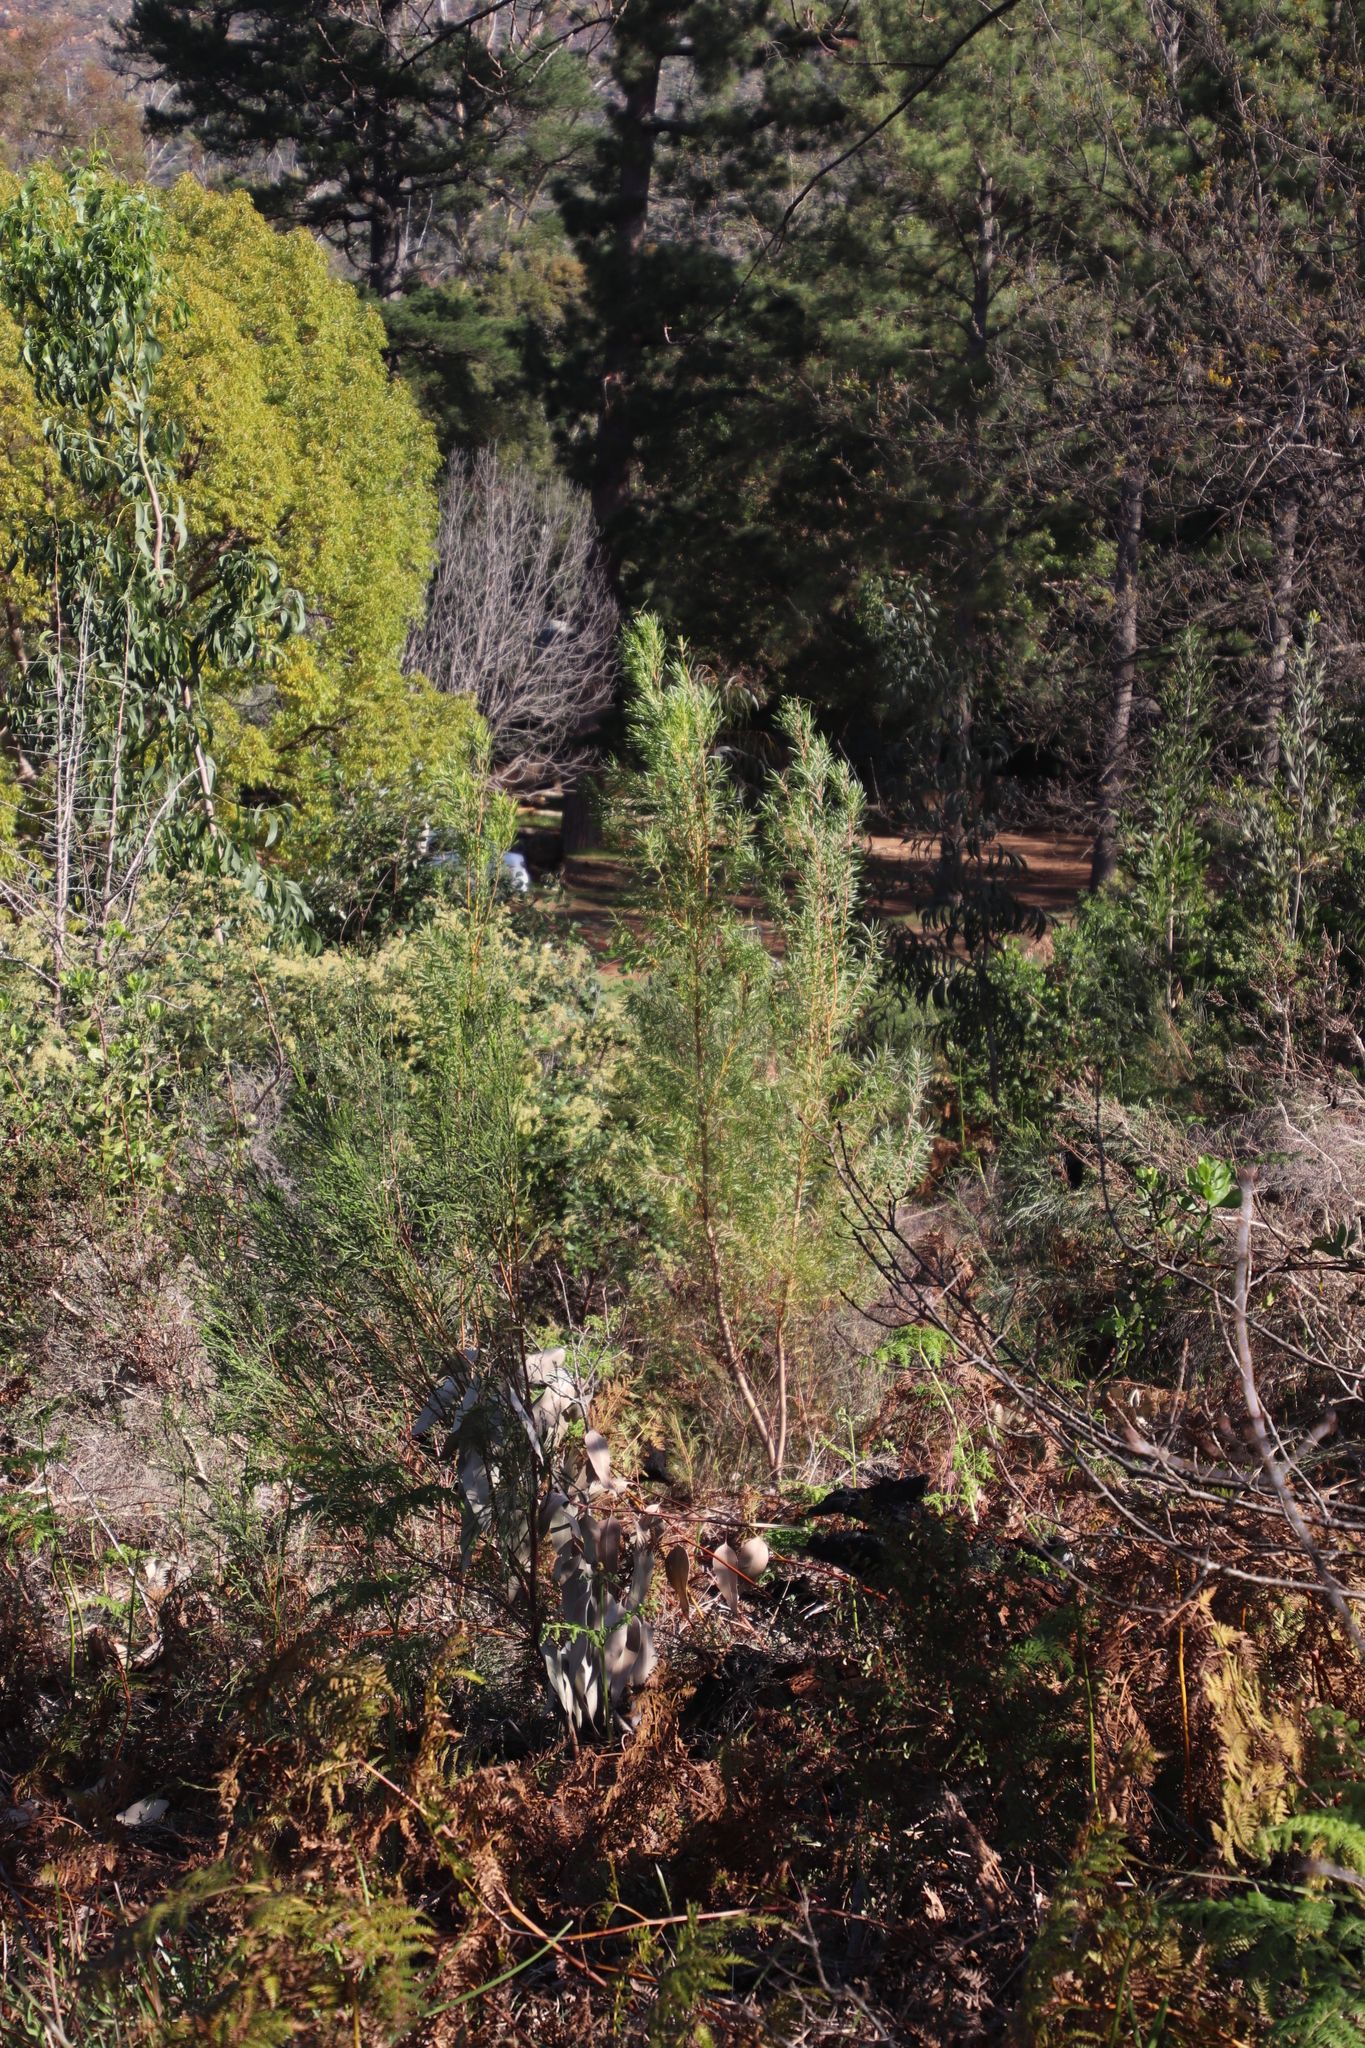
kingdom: Plantae
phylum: Tracheophyta
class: Magnoliopsida
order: Proteales
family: Proteaceae
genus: Leucadendron
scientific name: Leucadendron macowanii
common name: Acacia-leaf conebush
